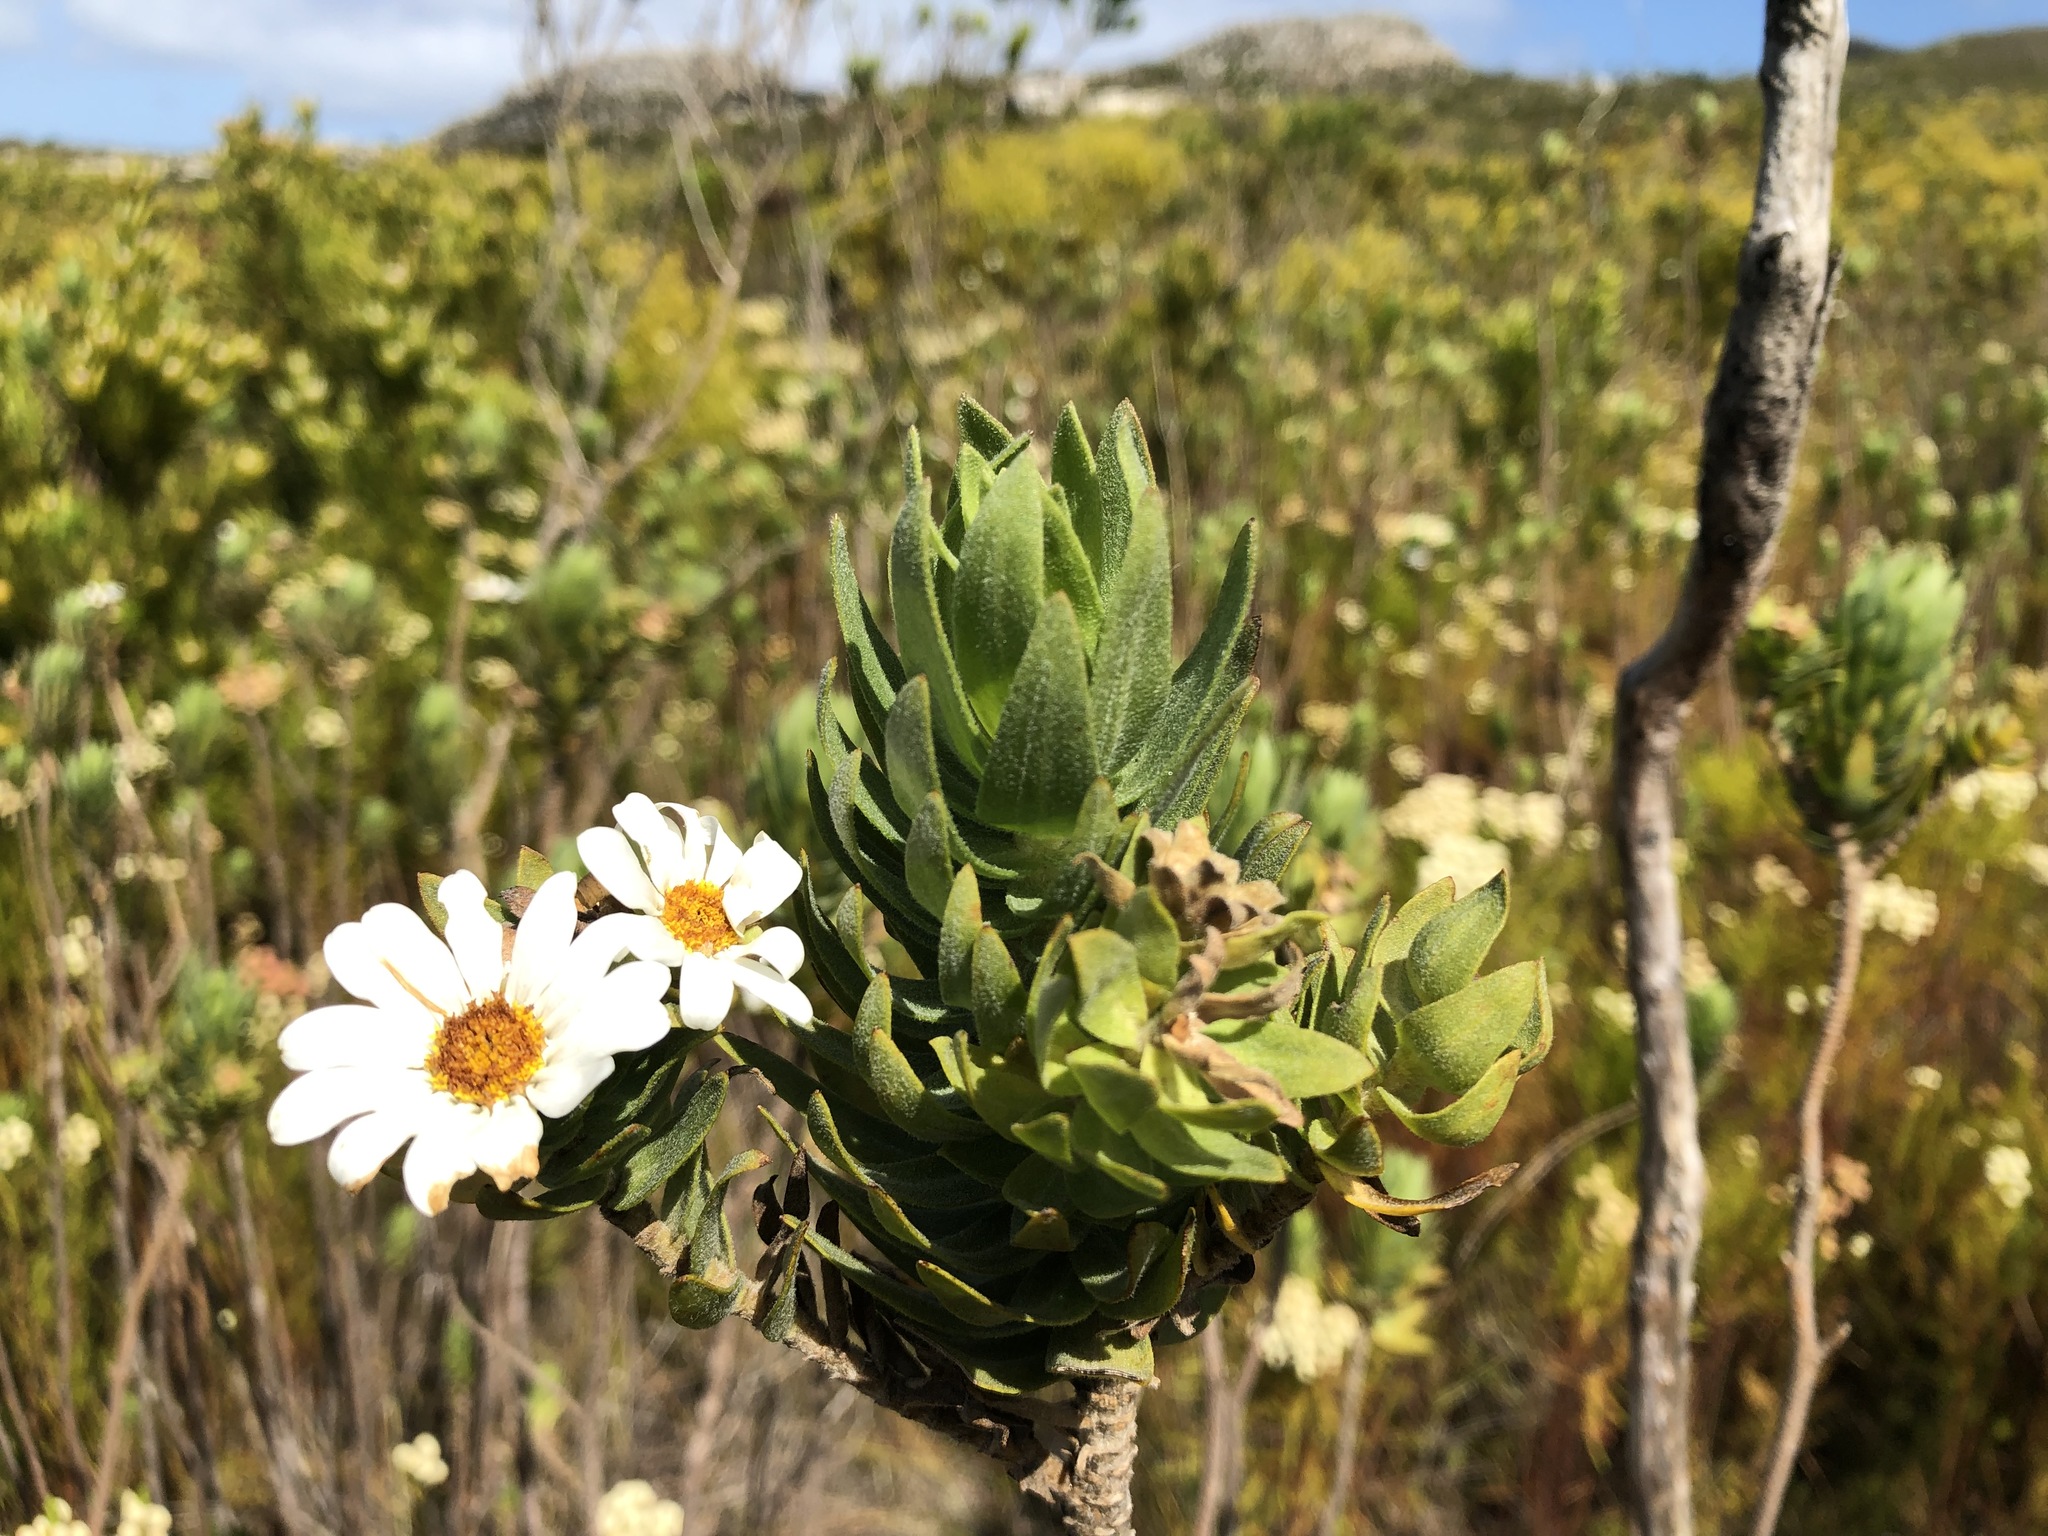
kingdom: Plantae
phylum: Tracheophyta
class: Magnoliopsida
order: Asterales
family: Asteraceae
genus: Osmitopsis
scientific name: Osmitopsis asteriscoides
